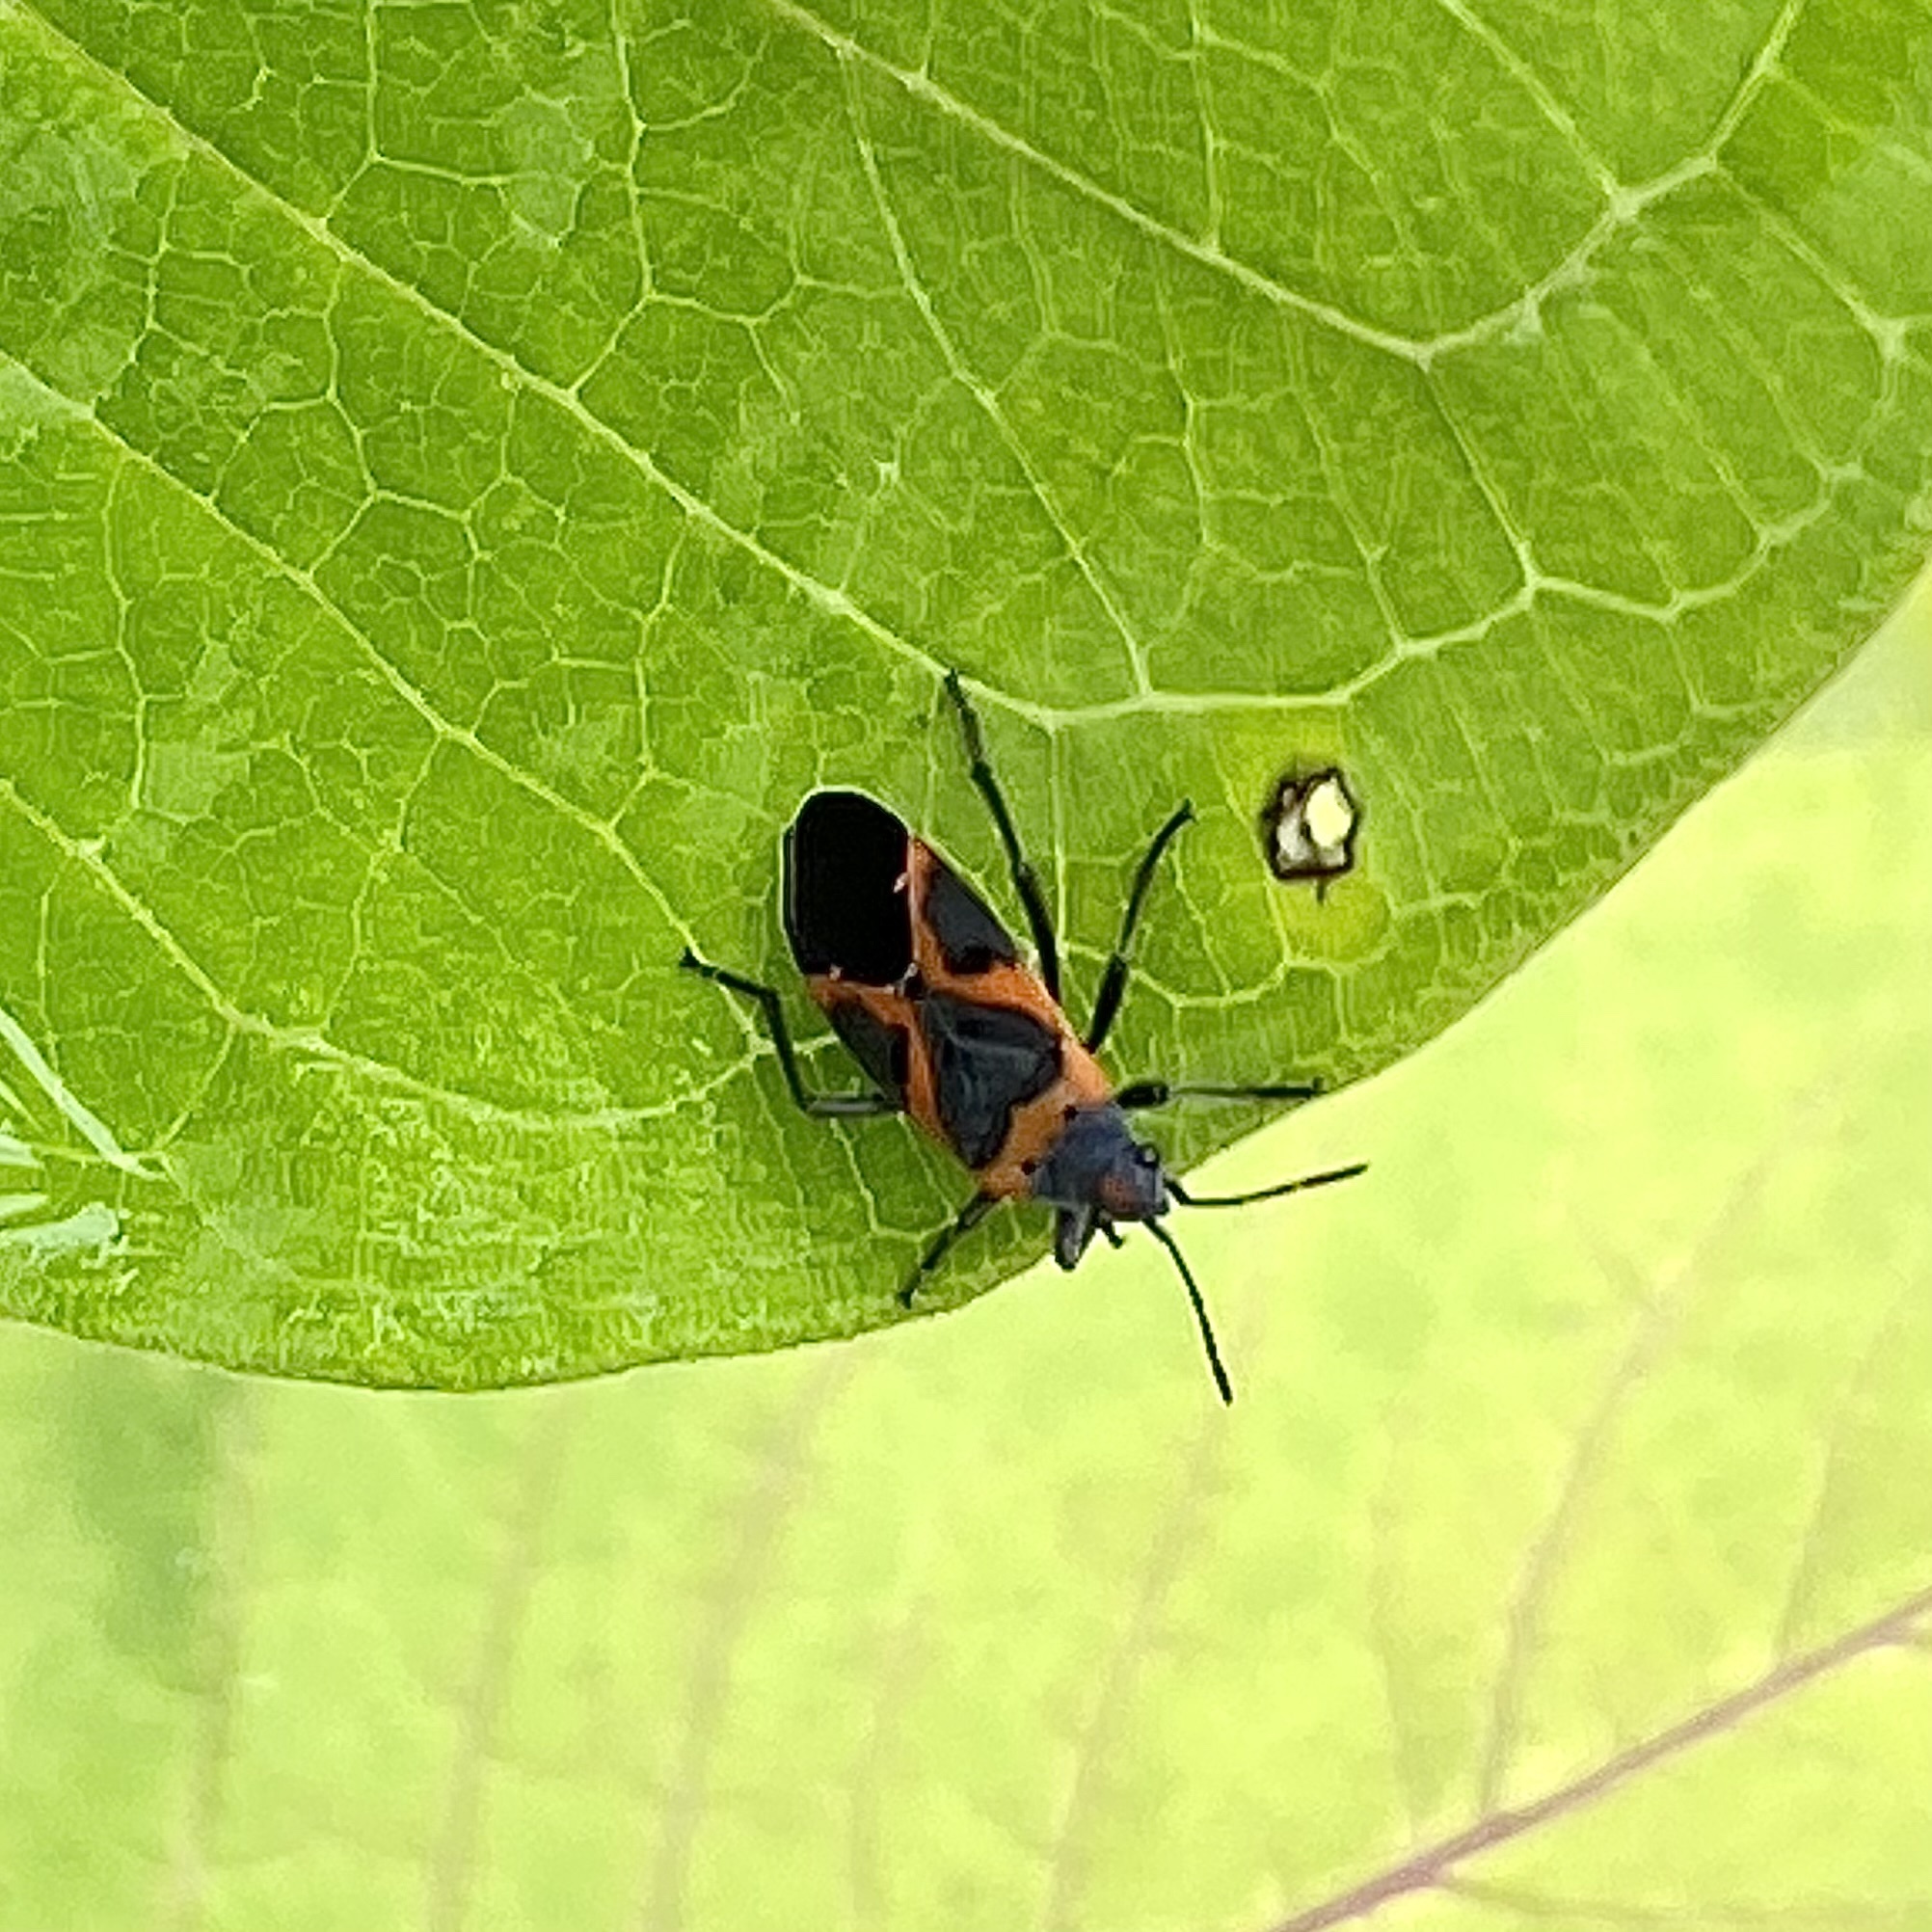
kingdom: Animalia
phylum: Arthropoda
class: Insecta
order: Hemiptera
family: Lygaeidae
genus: Lygaeus
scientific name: Lygaeus kalmii
